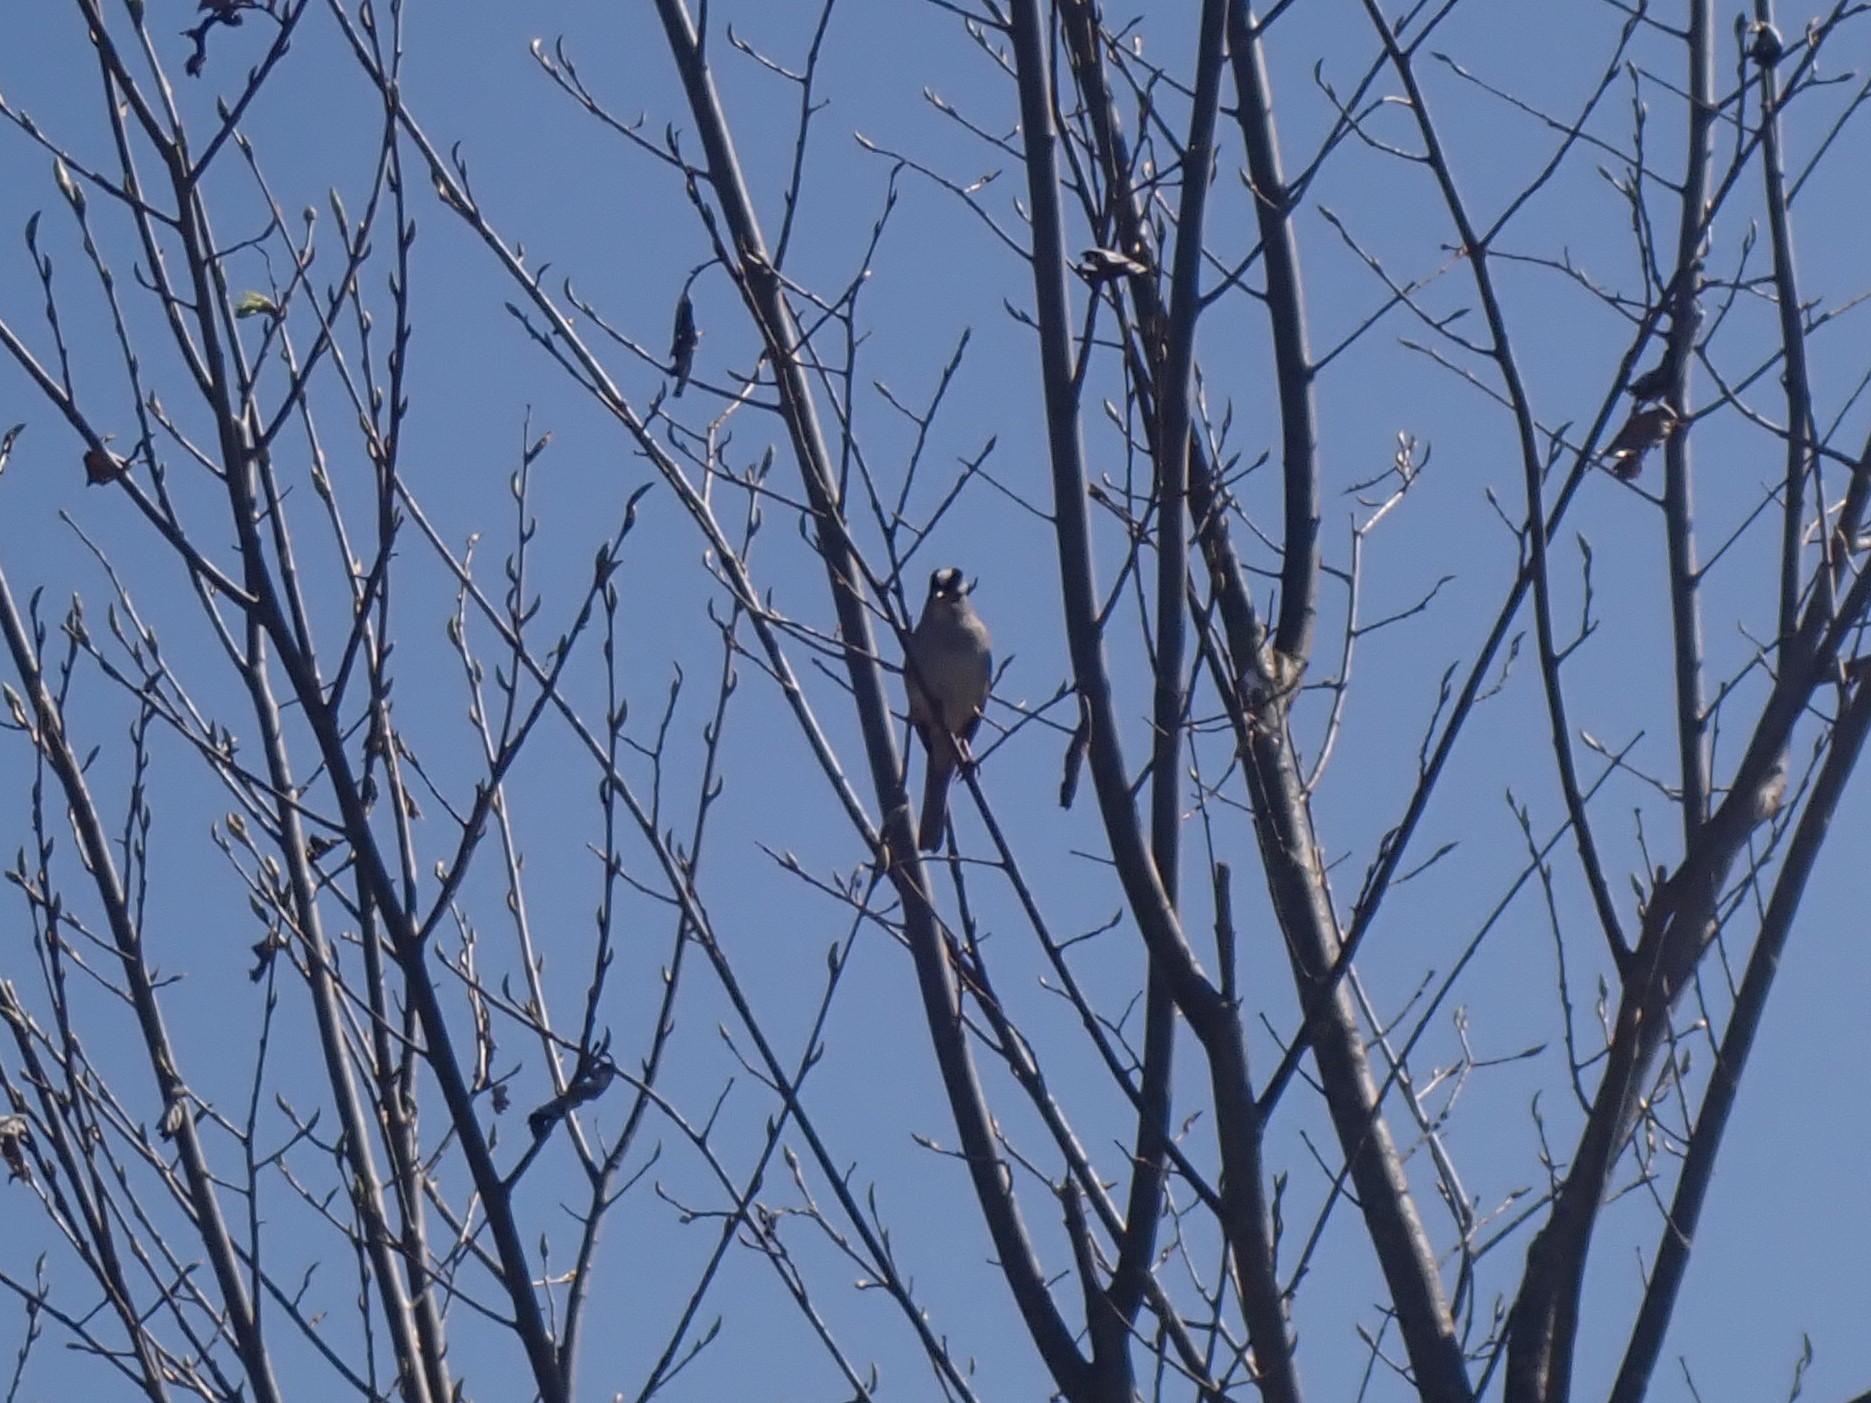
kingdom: Animalia
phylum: Chordata
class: Aves
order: Passeriformes
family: Passerellidae
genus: Zonotrichia
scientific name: Zonotrichia leucophrys
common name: White-crowned sparrow
